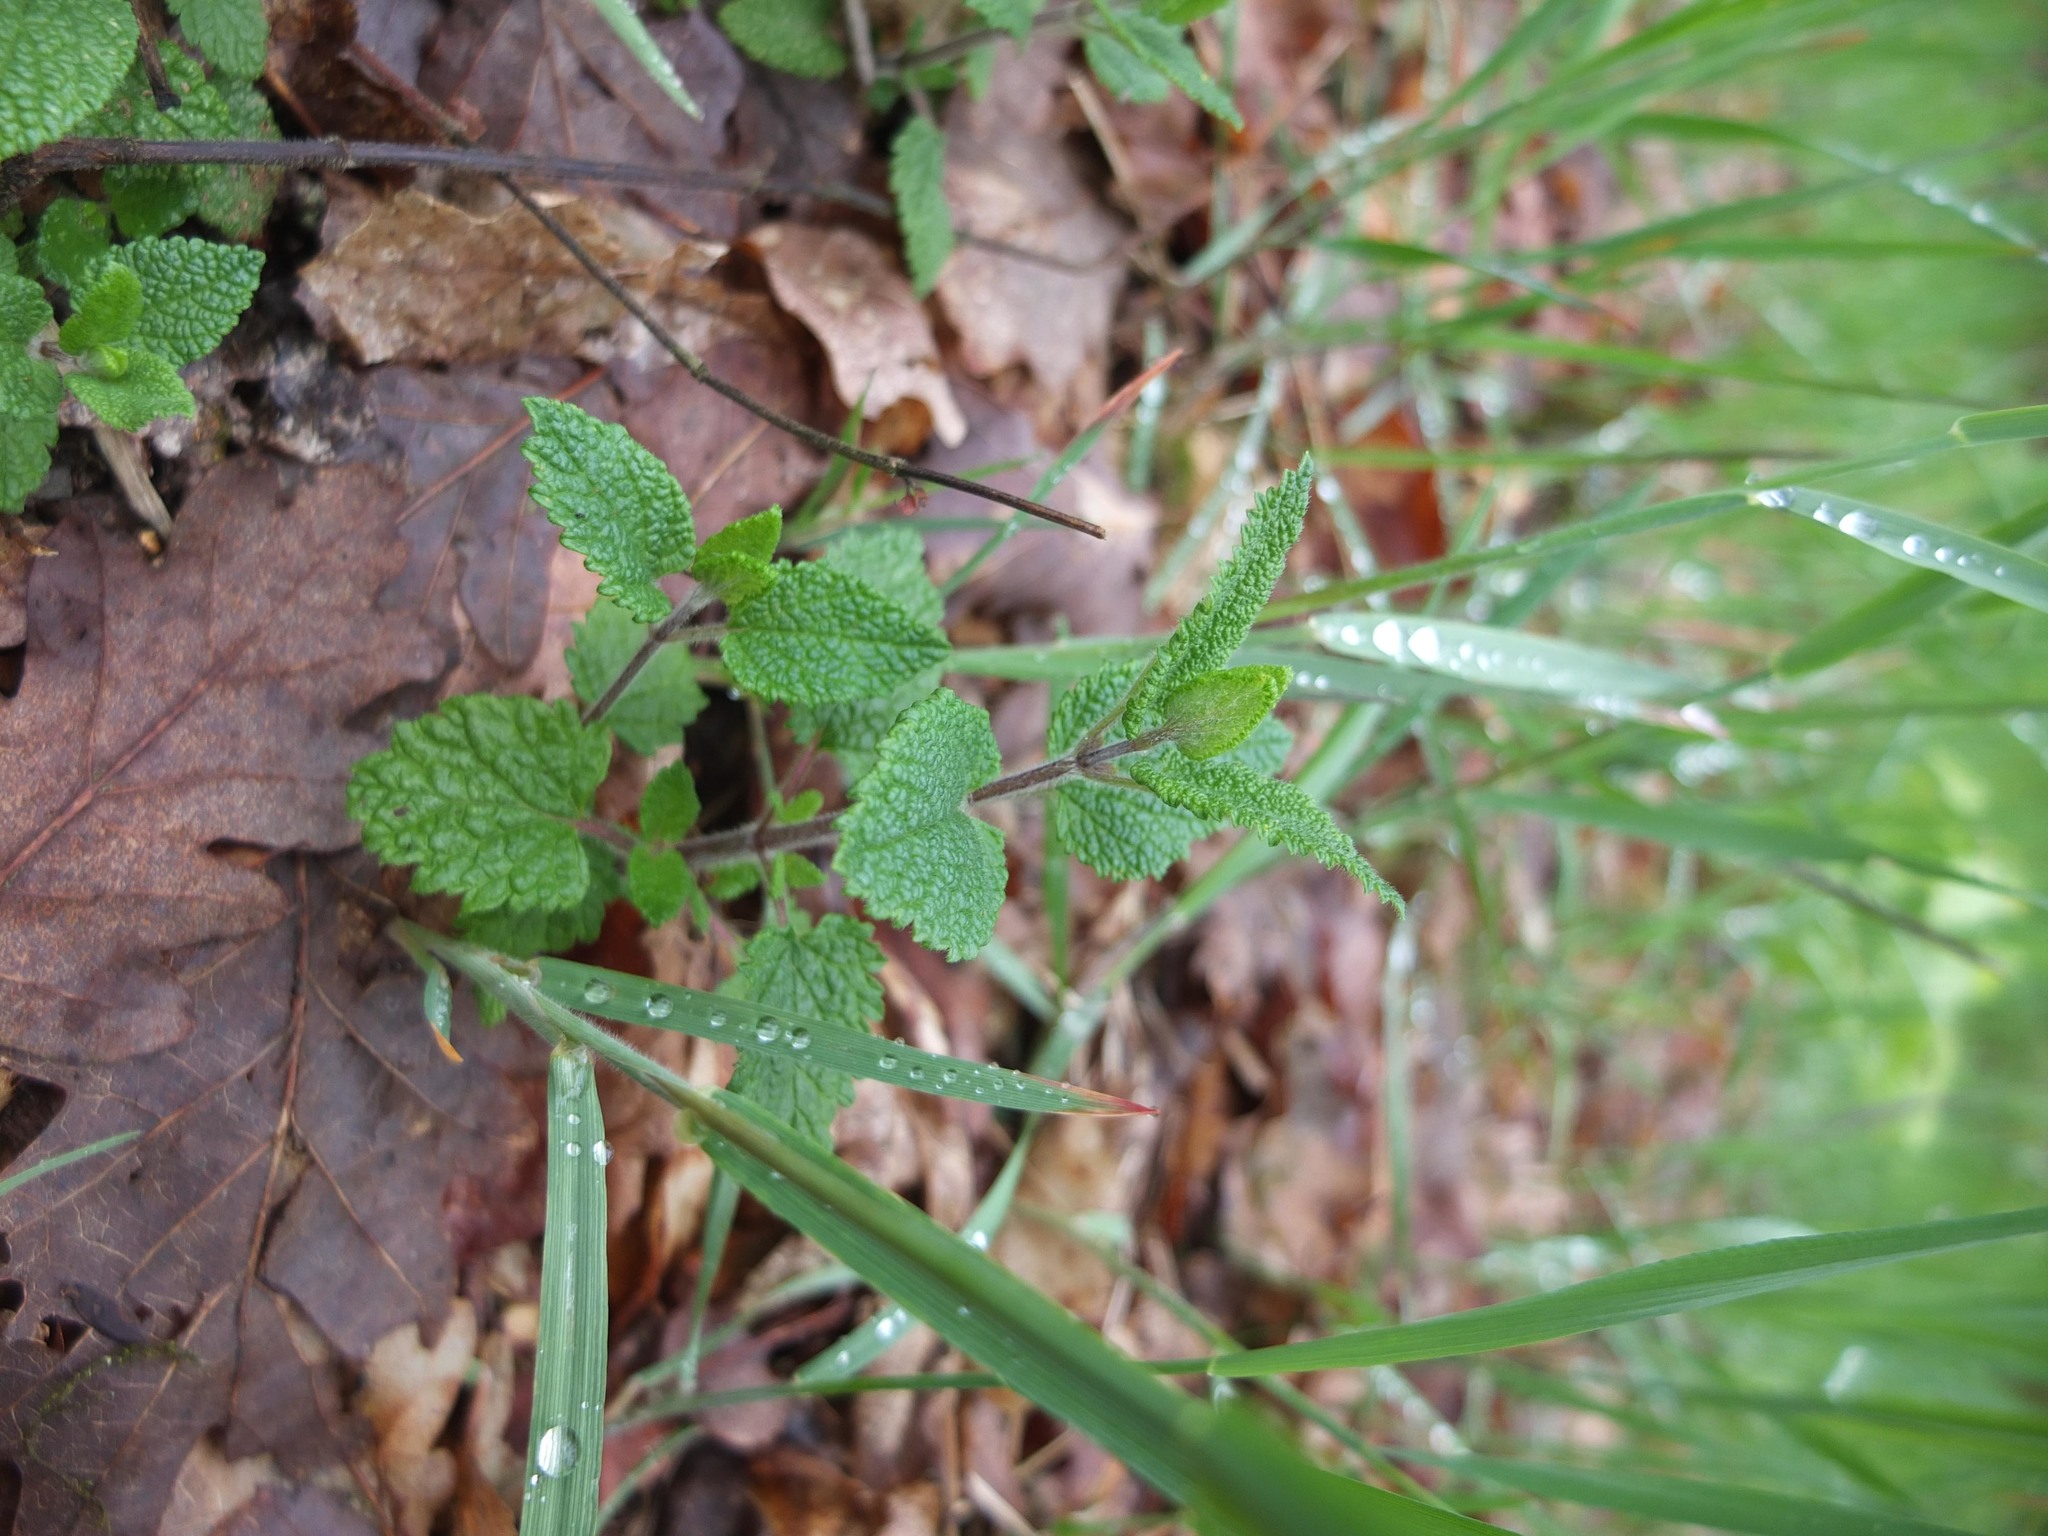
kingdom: Plantae
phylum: Tracheophyta
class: Magnoliopsida
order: Lamiales
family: Lamiaceae
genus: Teucrium
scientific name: Teucrium scorodonia
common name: Woodland germander
